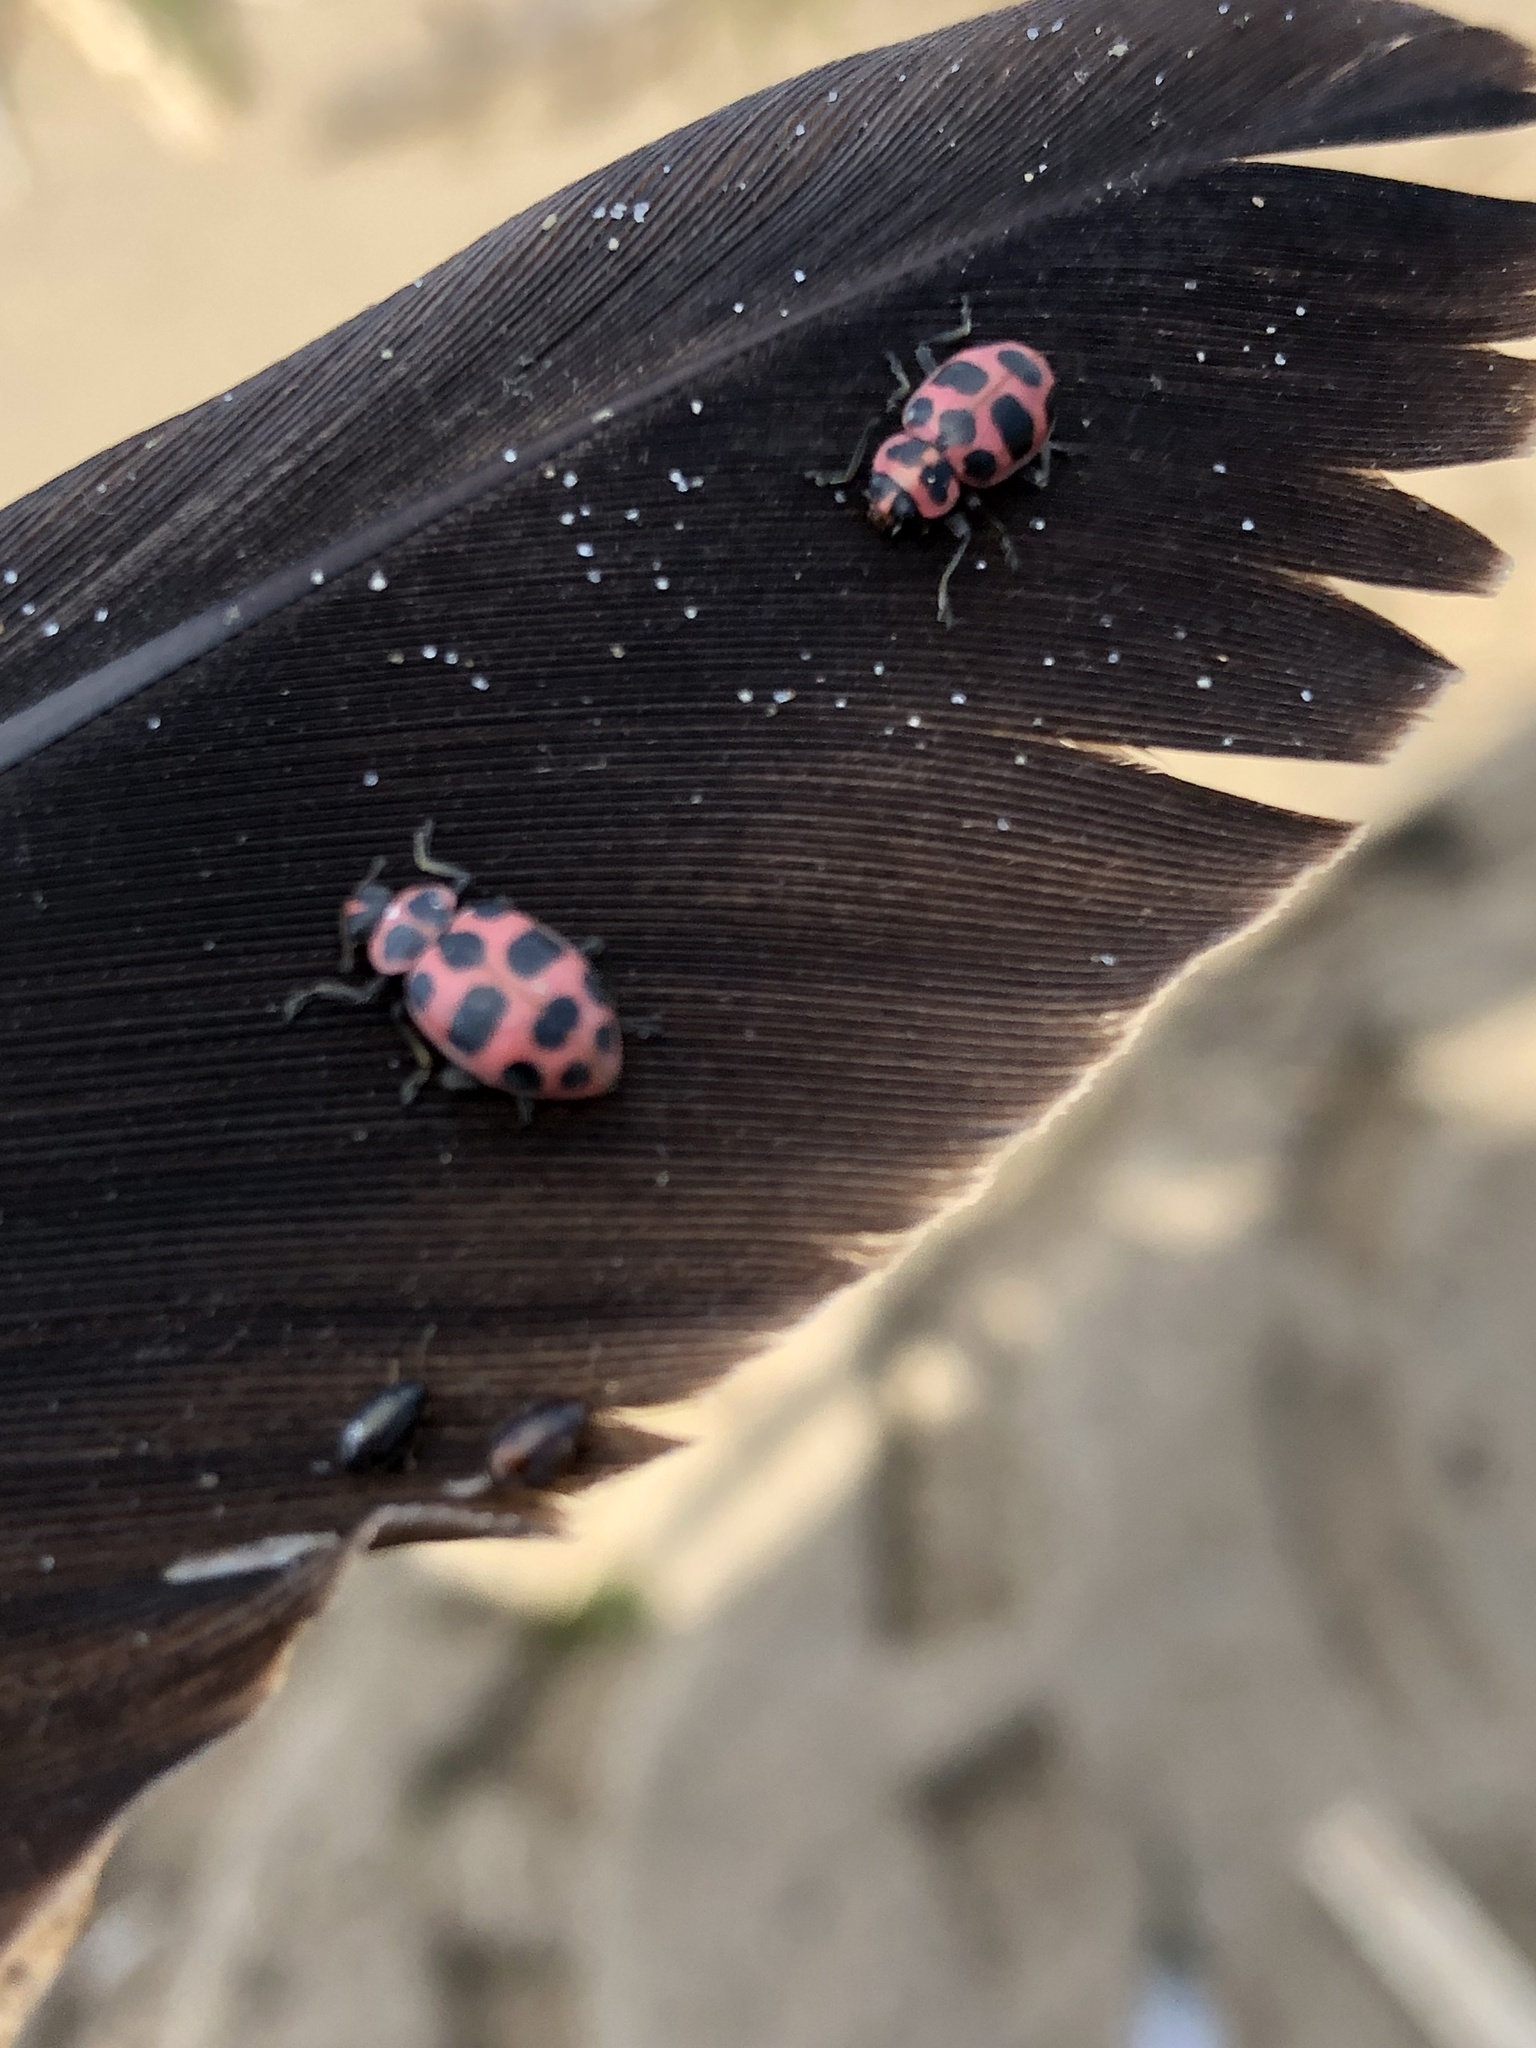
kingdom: Animalia
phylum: Arthropoda
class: Insecta
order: Coleoptera
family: Coccinellidae
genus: Coleomegilla
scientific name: Coleomegilla maculata
